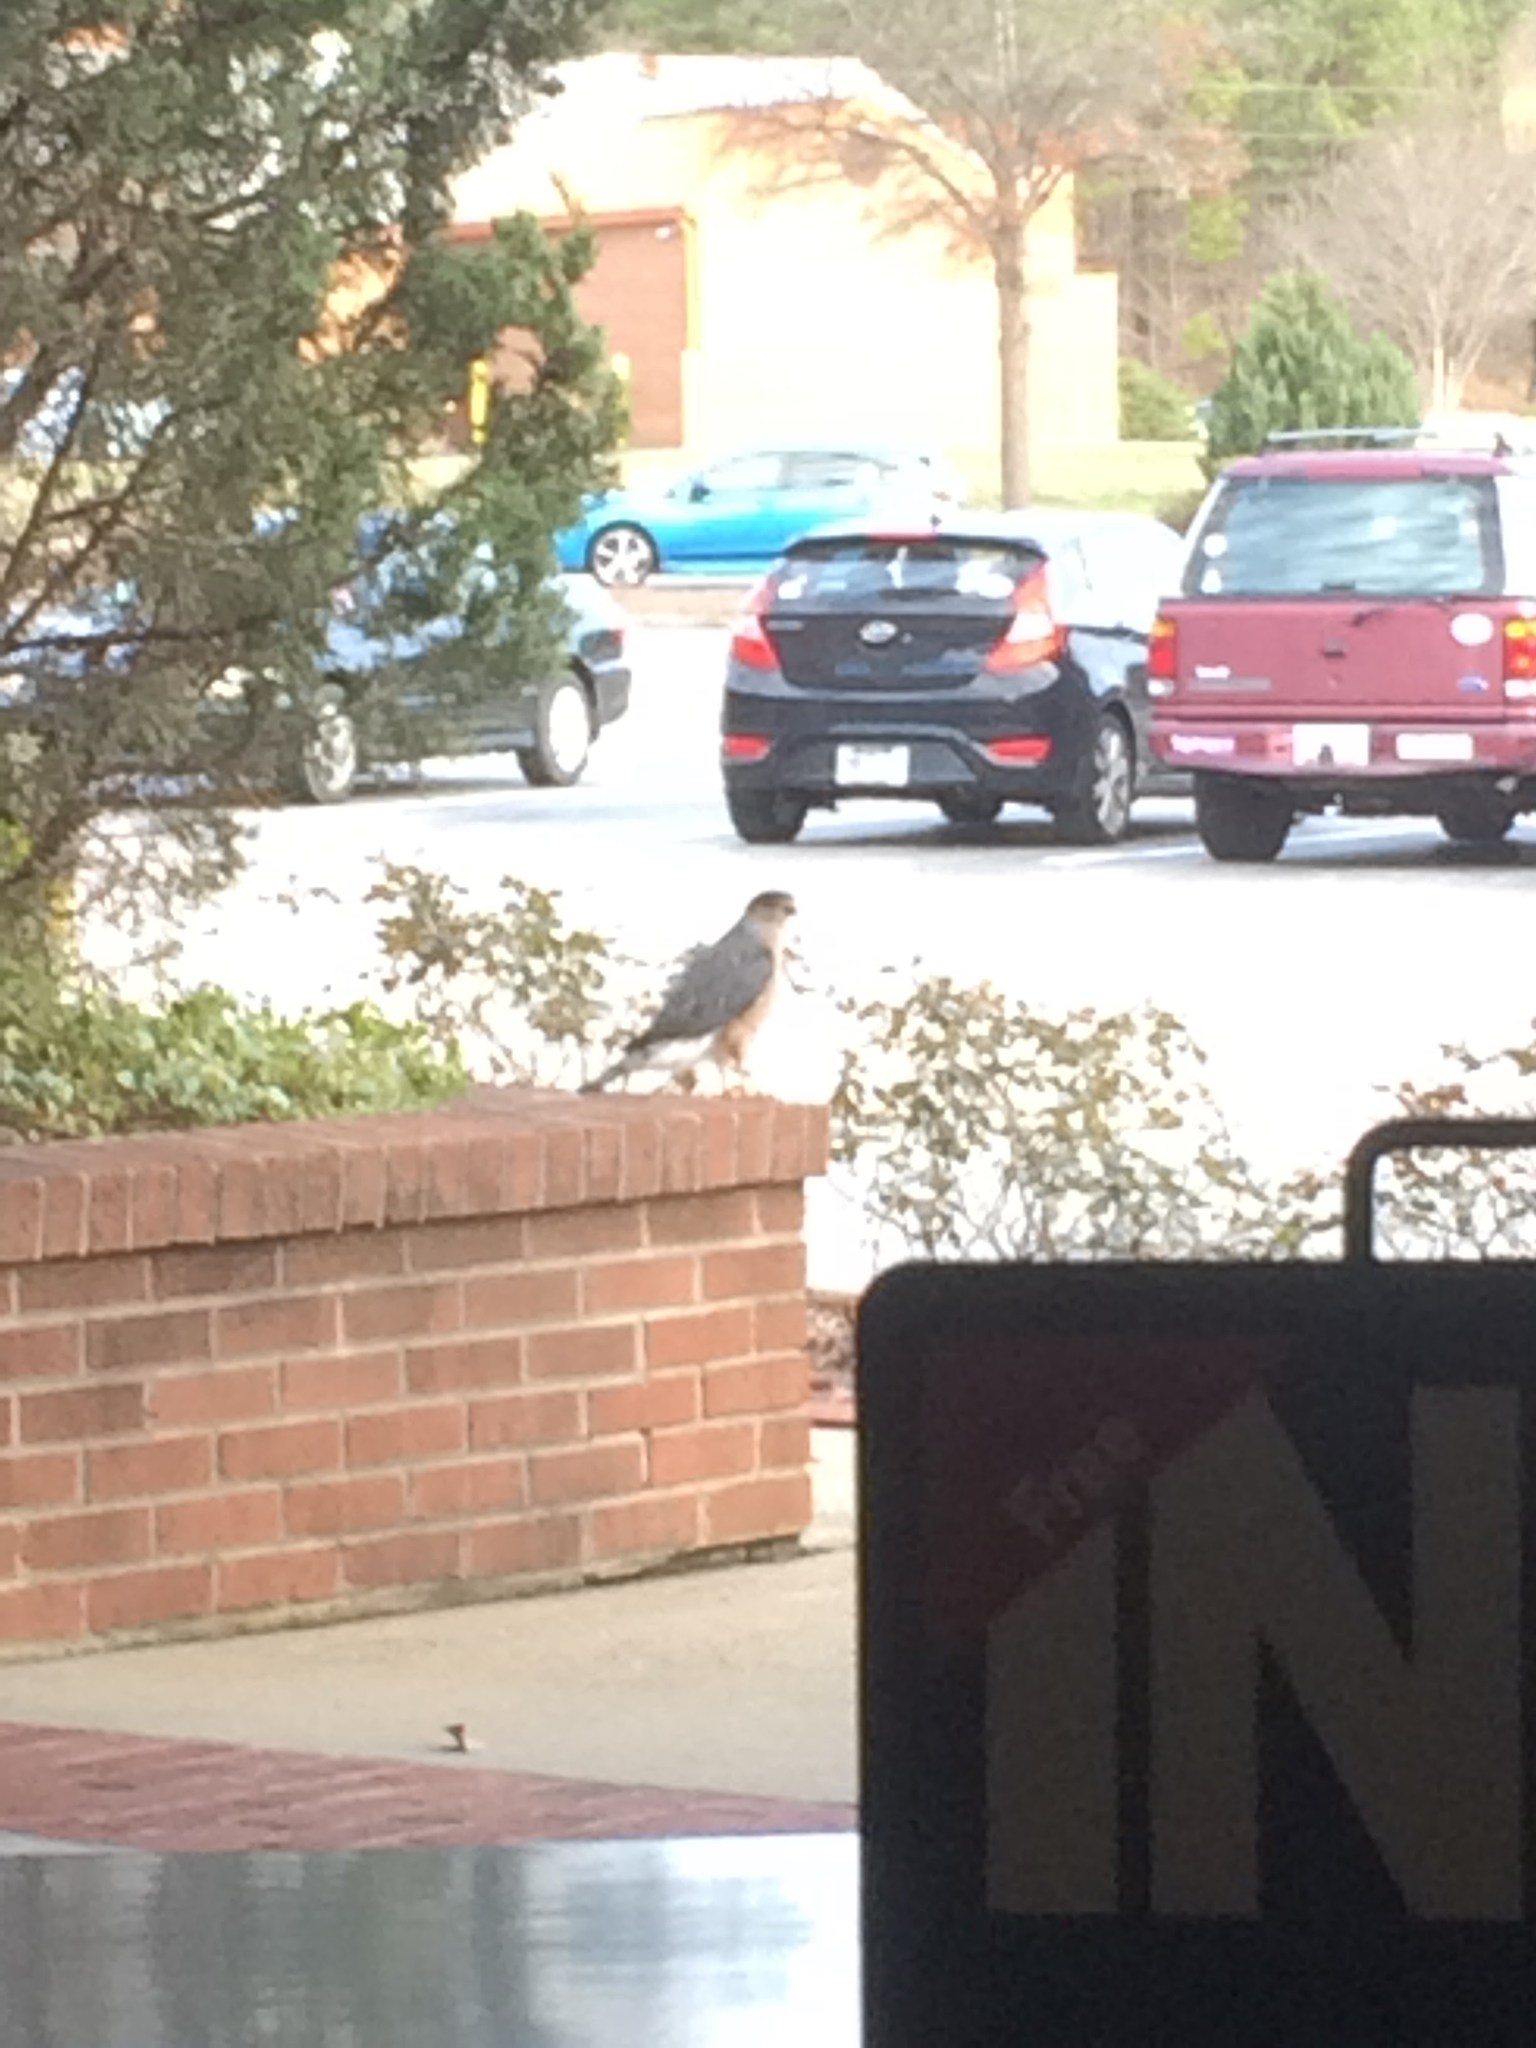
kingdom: Animalia
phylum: Chordata
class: Aves
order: Accipitriformes
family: Accipitridae
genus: Accipiter
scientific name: Accipiter cooperii
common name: Cooper's hawk
